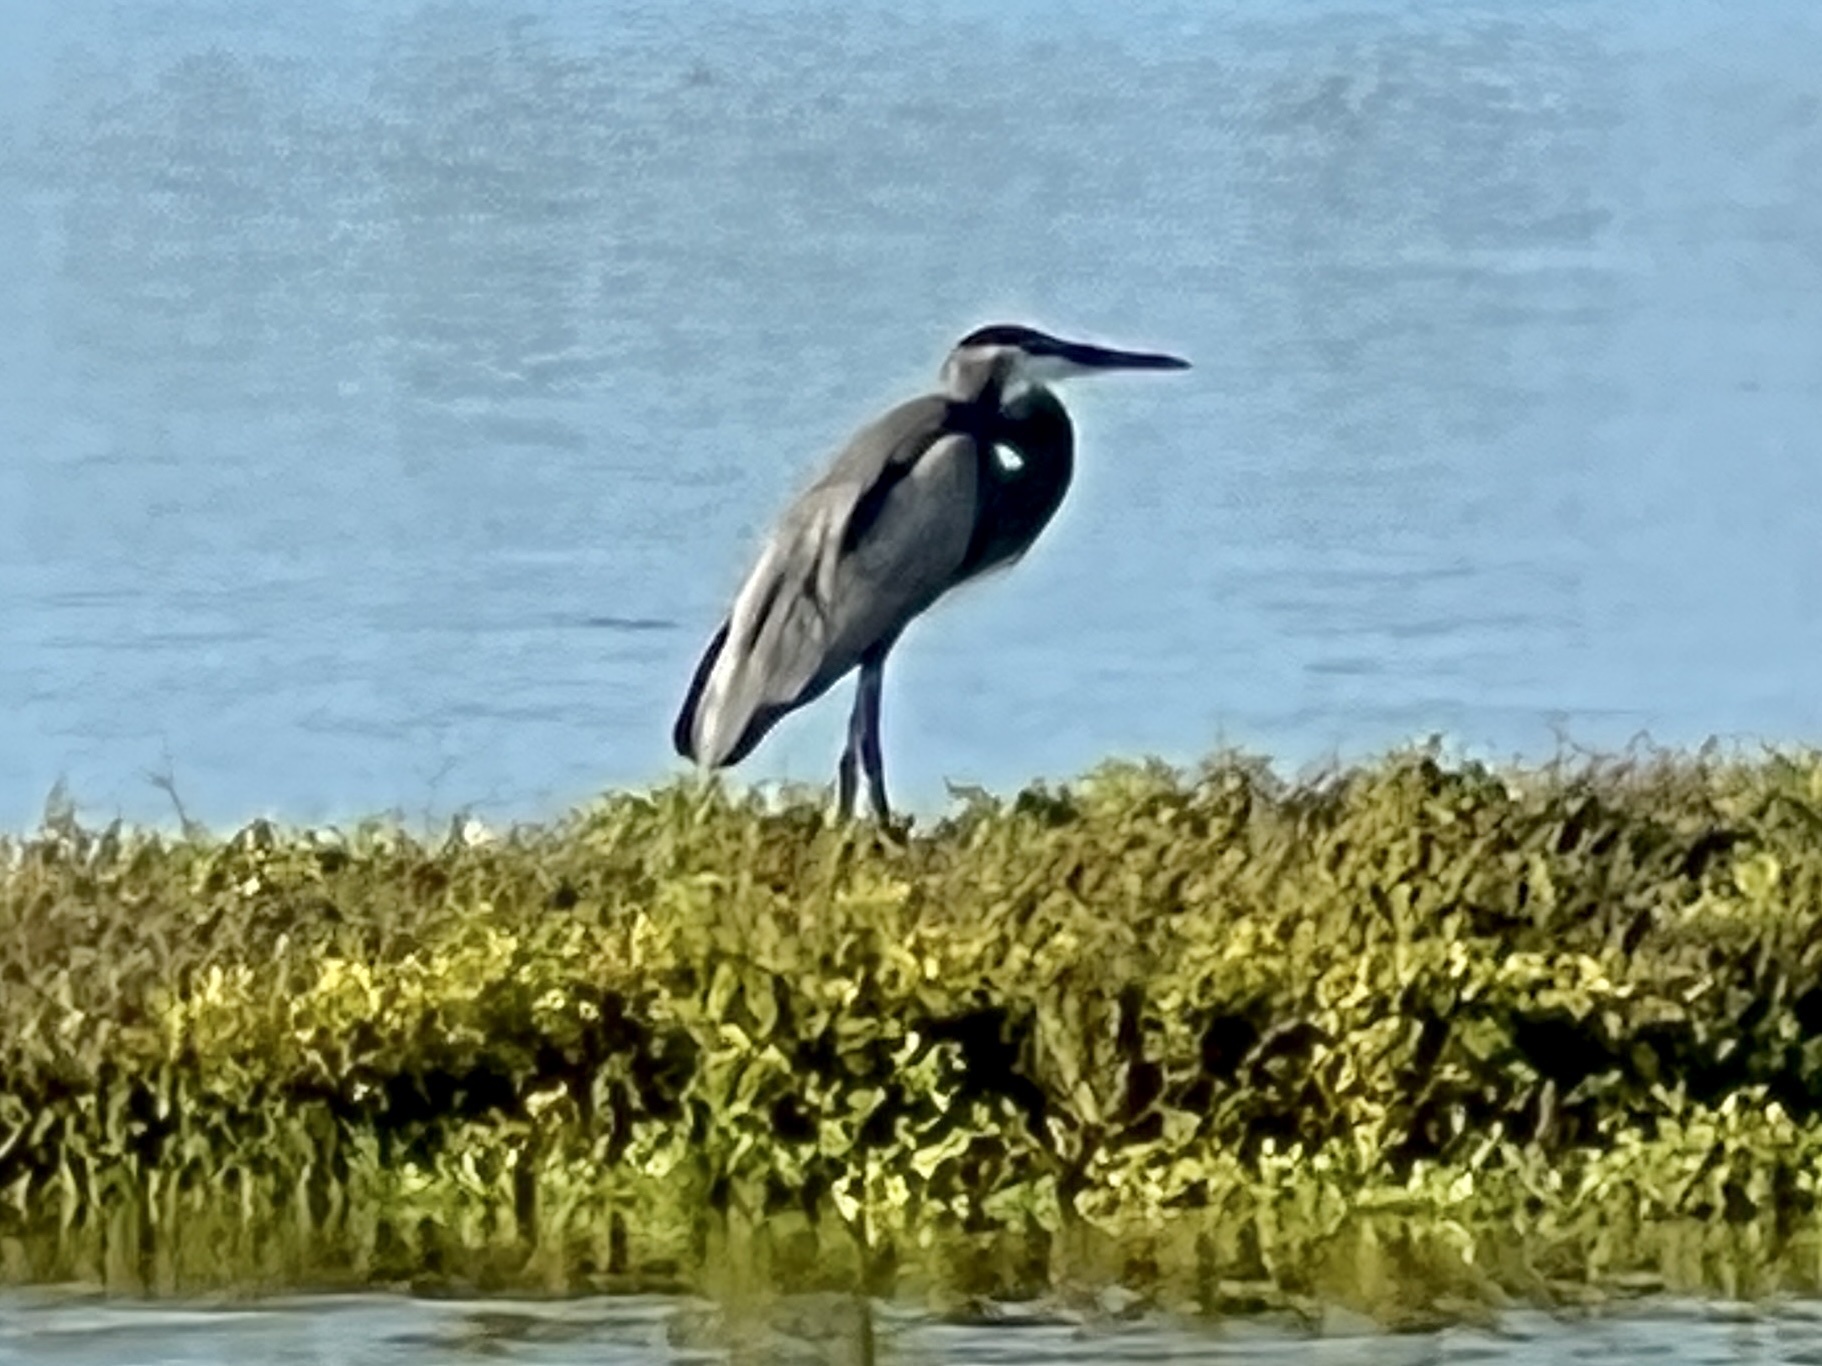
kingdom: Animalia
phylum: Chordata
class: Aves
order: Pelecaniformes
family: Ardeidae
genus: Ardea
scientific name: Ardea herodias
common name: Great blue heron
